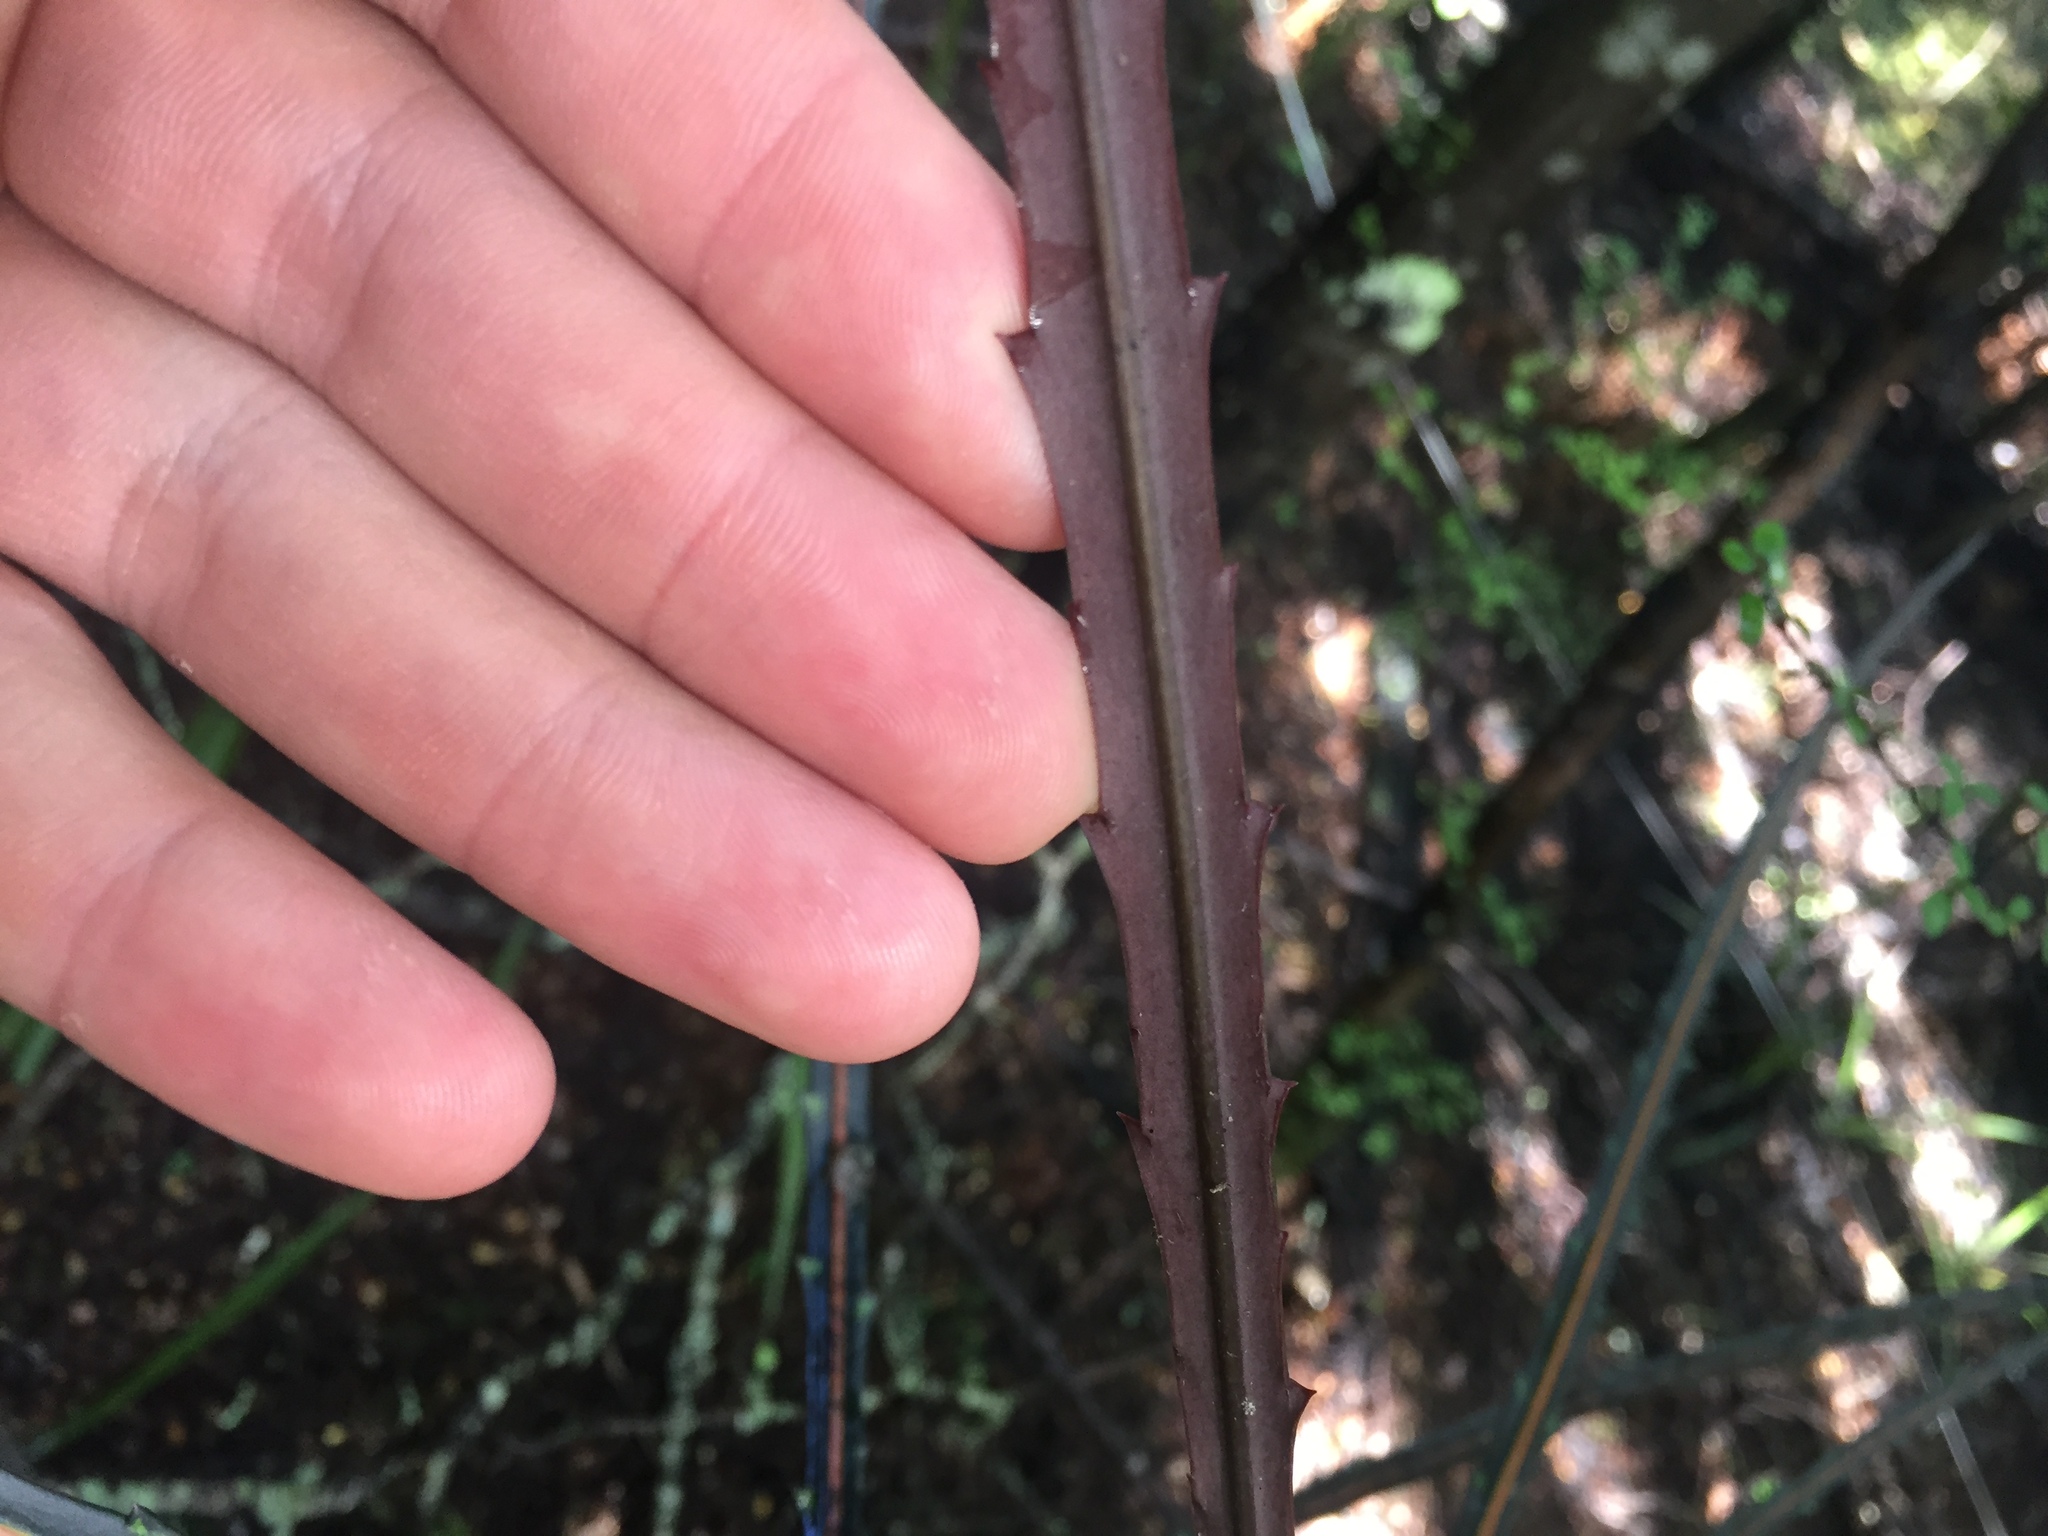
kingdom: Plantae
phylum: Tracheophyta
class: Magnoliopsida
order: Apiales
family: Araliaceae
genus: Pseudopanax
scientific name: Pseudopanax crassifolius
